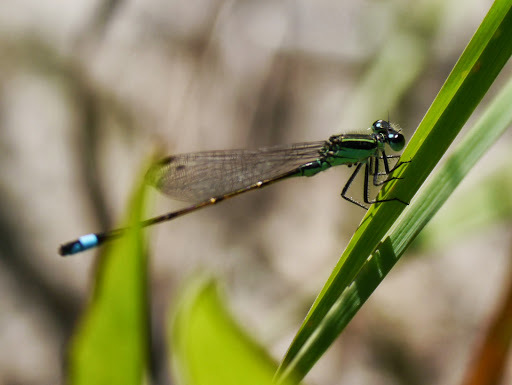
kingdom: Animalia
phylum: Arthropoda
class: Insecta
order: Odonata
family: Coenagrionidae
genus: Ischnura
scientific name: Ischnura ramburii
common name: Rambur's forktail
